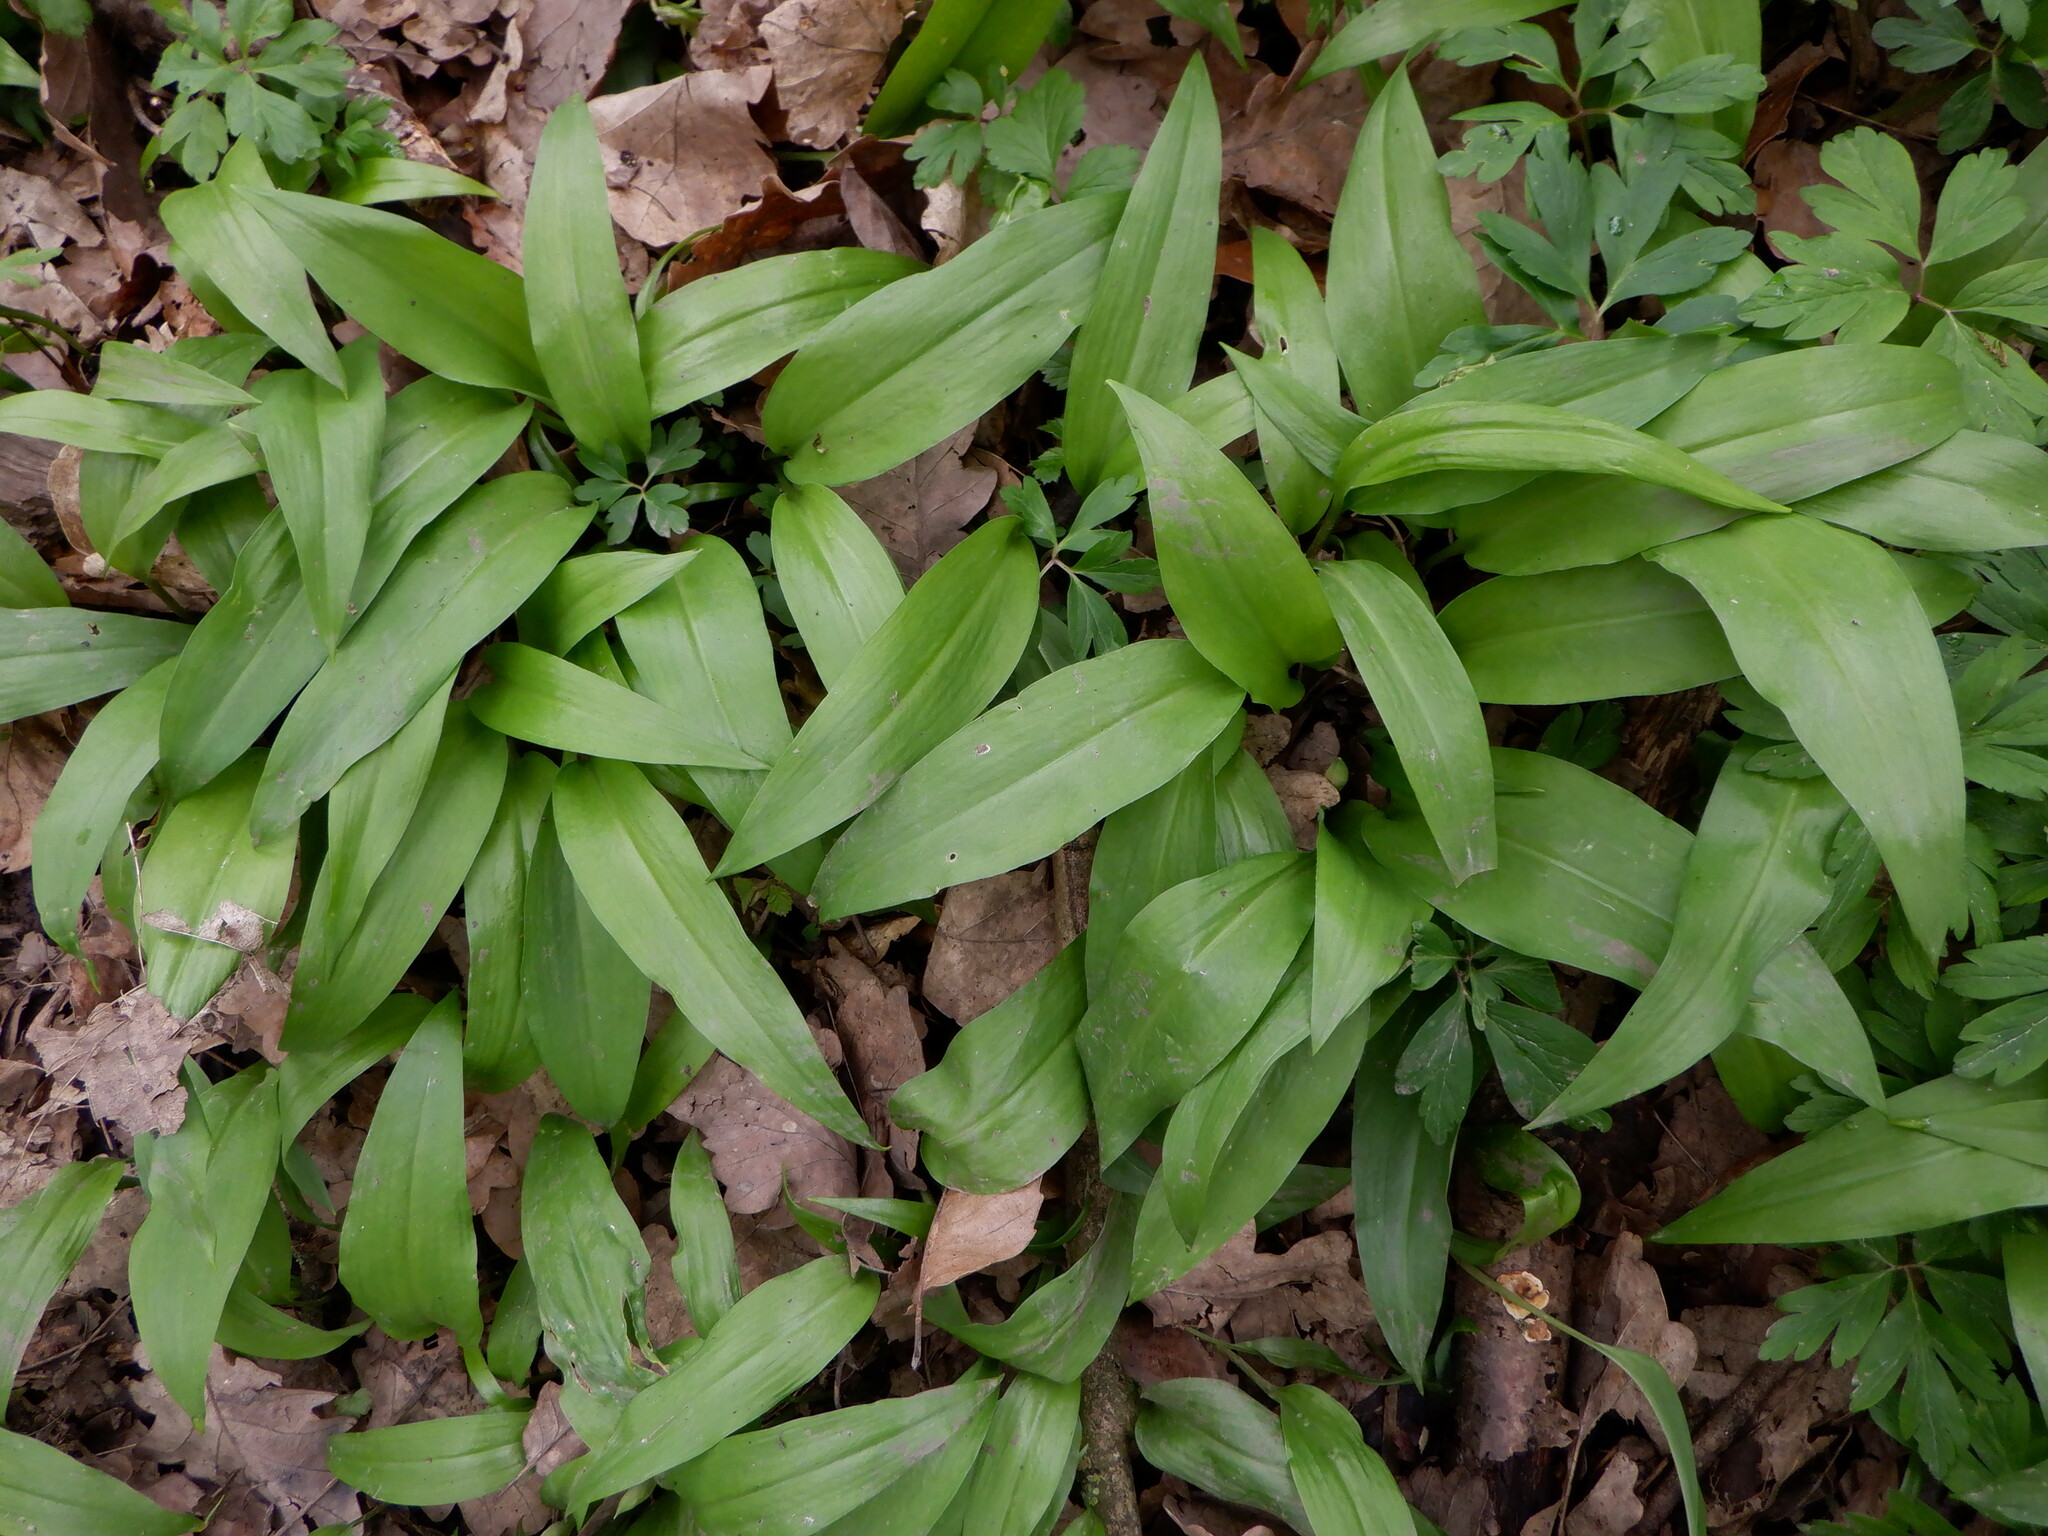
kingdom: Plantae
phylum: Tracheophyta
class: Liliopsida
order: Asparagales
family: Amaryllidaceae
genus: Allium
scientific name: Allium ursinum
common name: Ramsons
